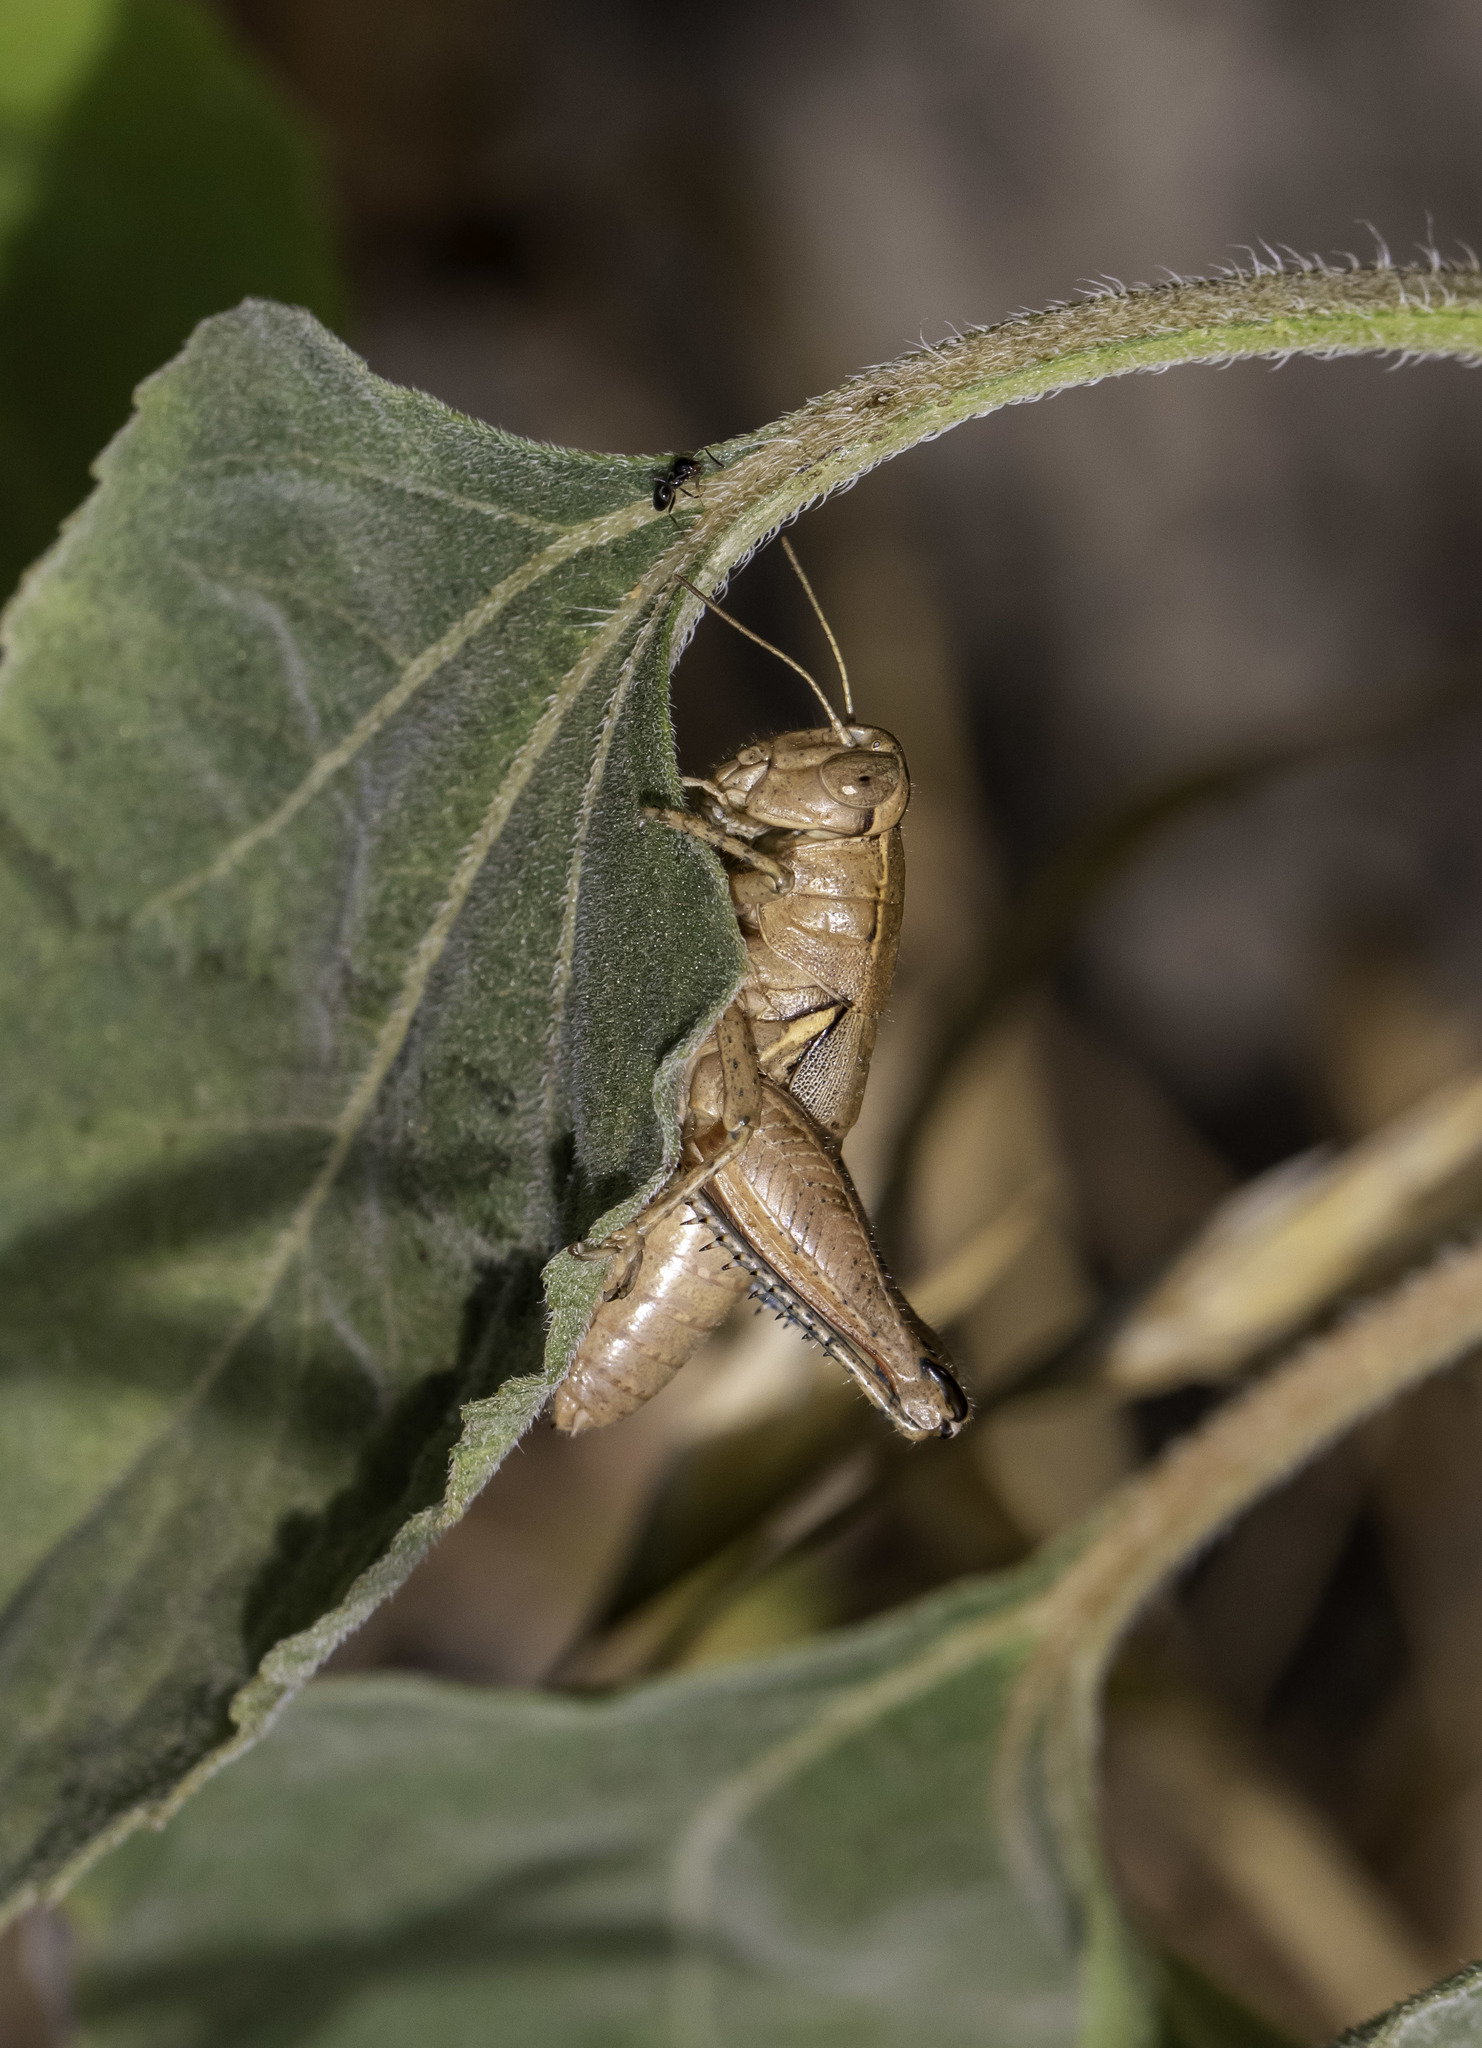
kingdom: Animalia
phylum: Arthropoda
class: Insecta
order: Orthoptera
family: Acrididae
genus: Oedaleonotus
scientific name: Oedaleonotus tenuipennis
